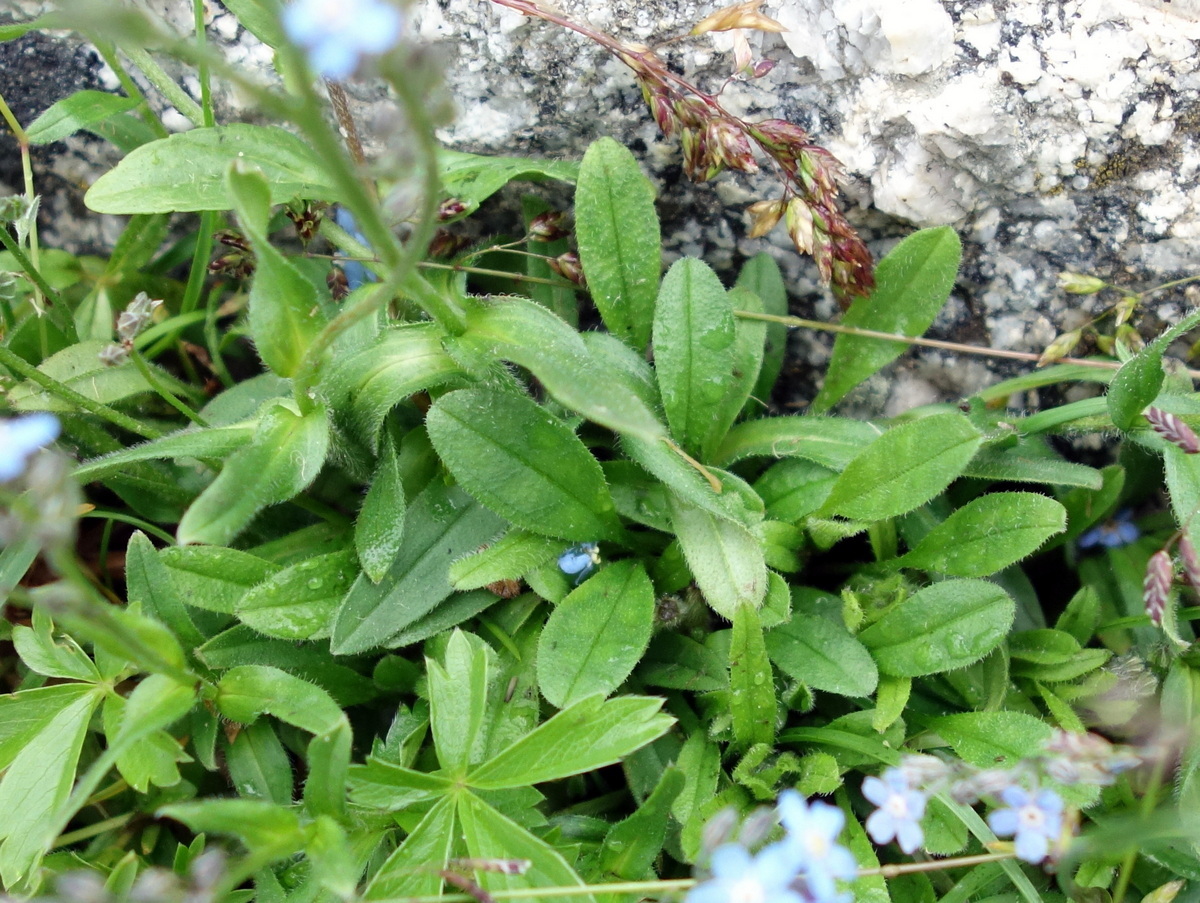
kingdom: Plantae
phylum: Tracheophyta
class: Magnoliopsida
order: Boraginales
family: Boraginaceae
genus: Myosotis
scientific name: Myosotis alpestris
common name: Alpine forget-me-not
